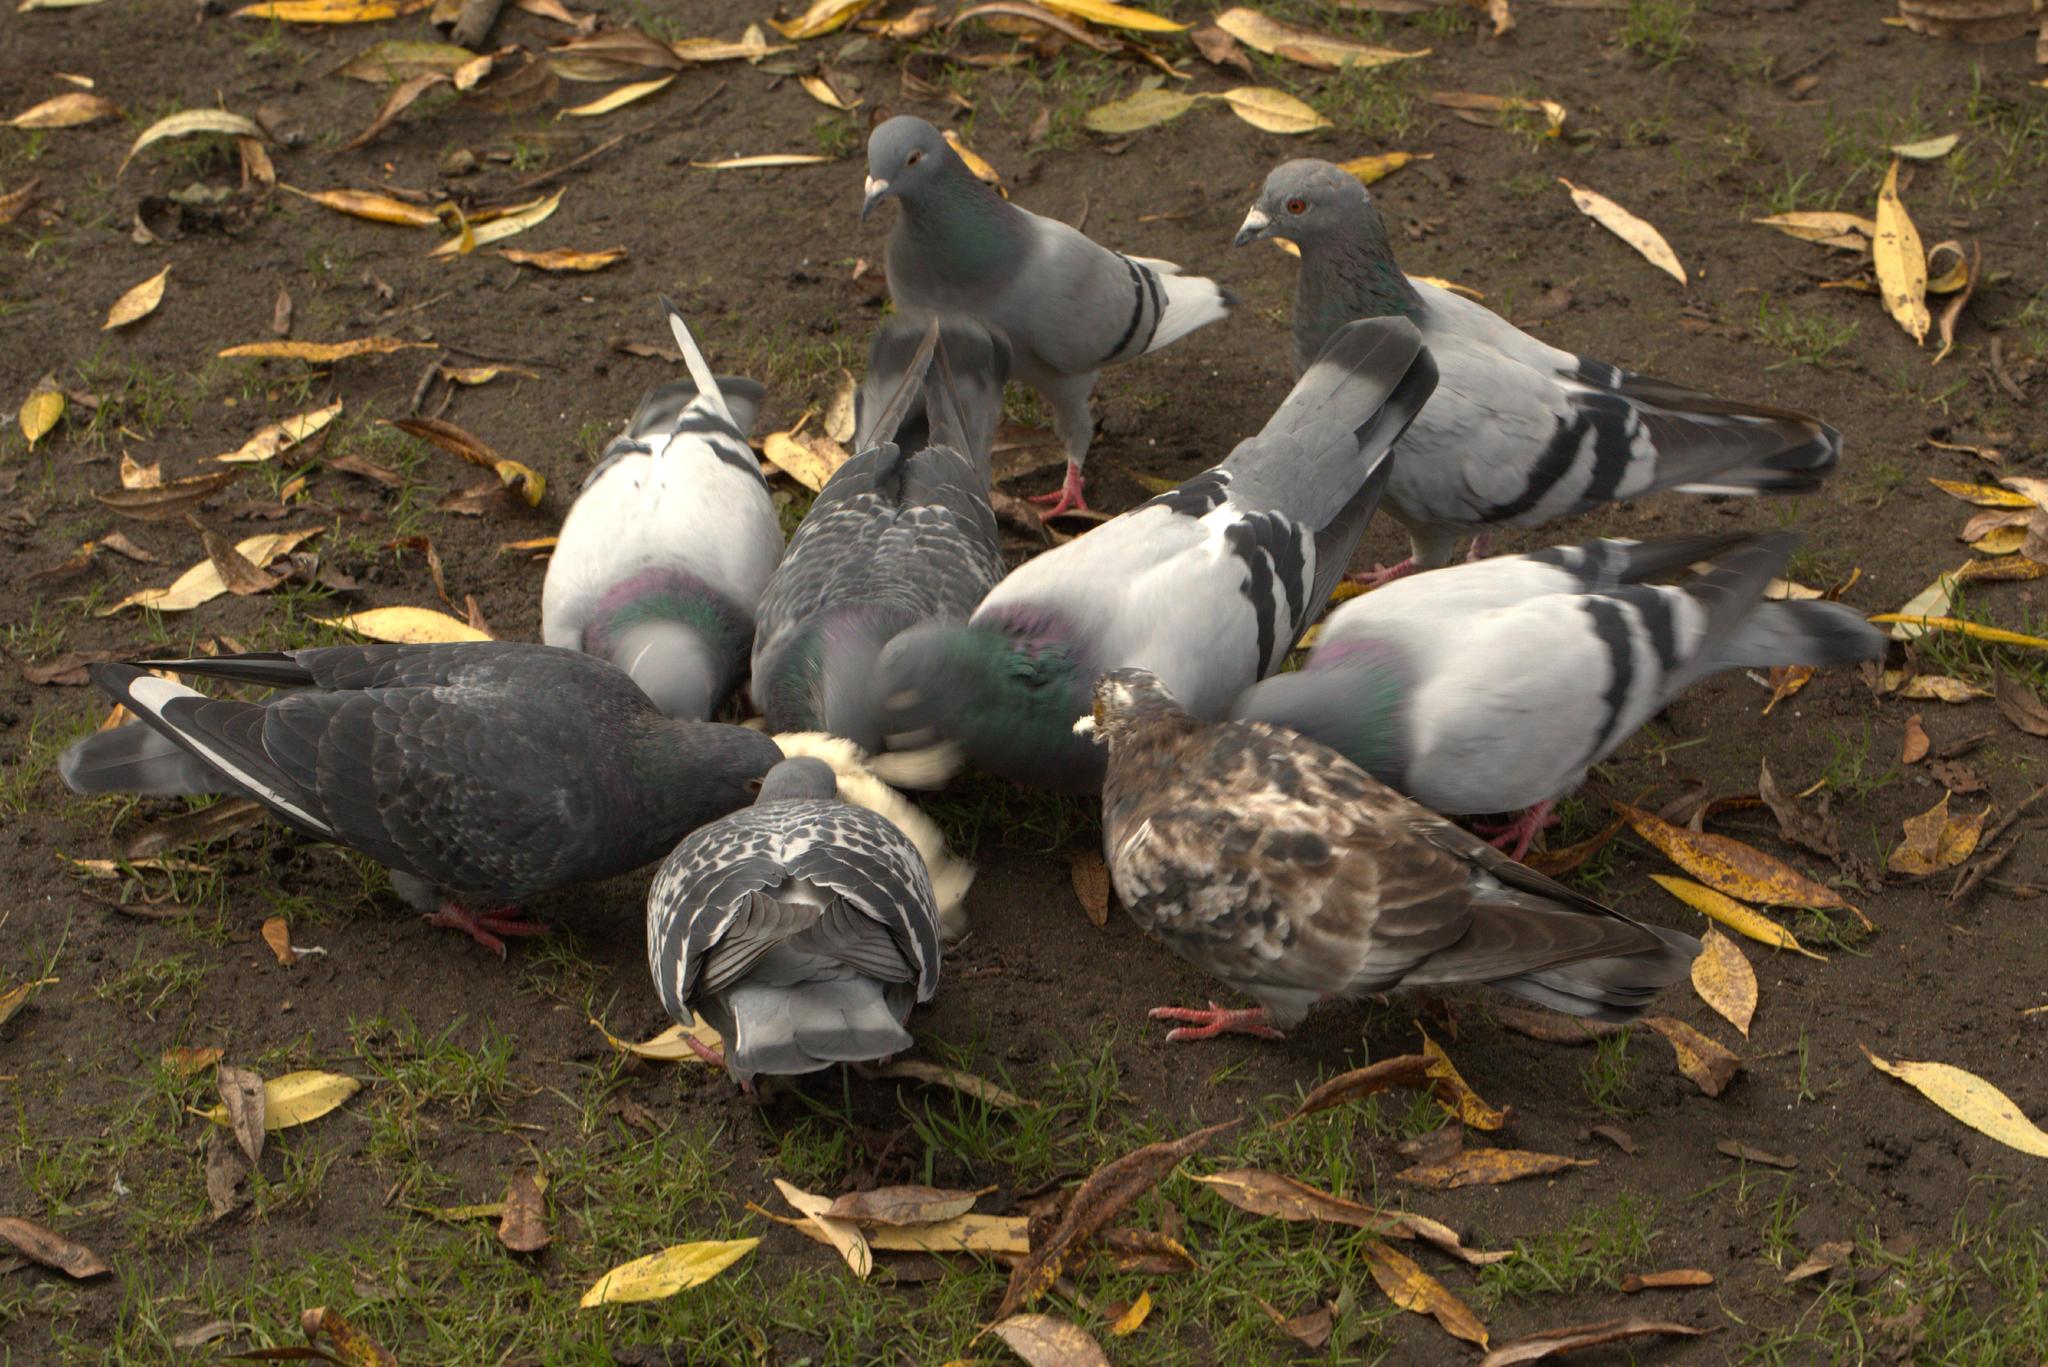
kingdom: Animalia
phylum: Chordata
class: Aves
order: Columbiformes
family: Columbidae
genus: Columba
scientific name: Columba livia
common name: Rock pigeon
